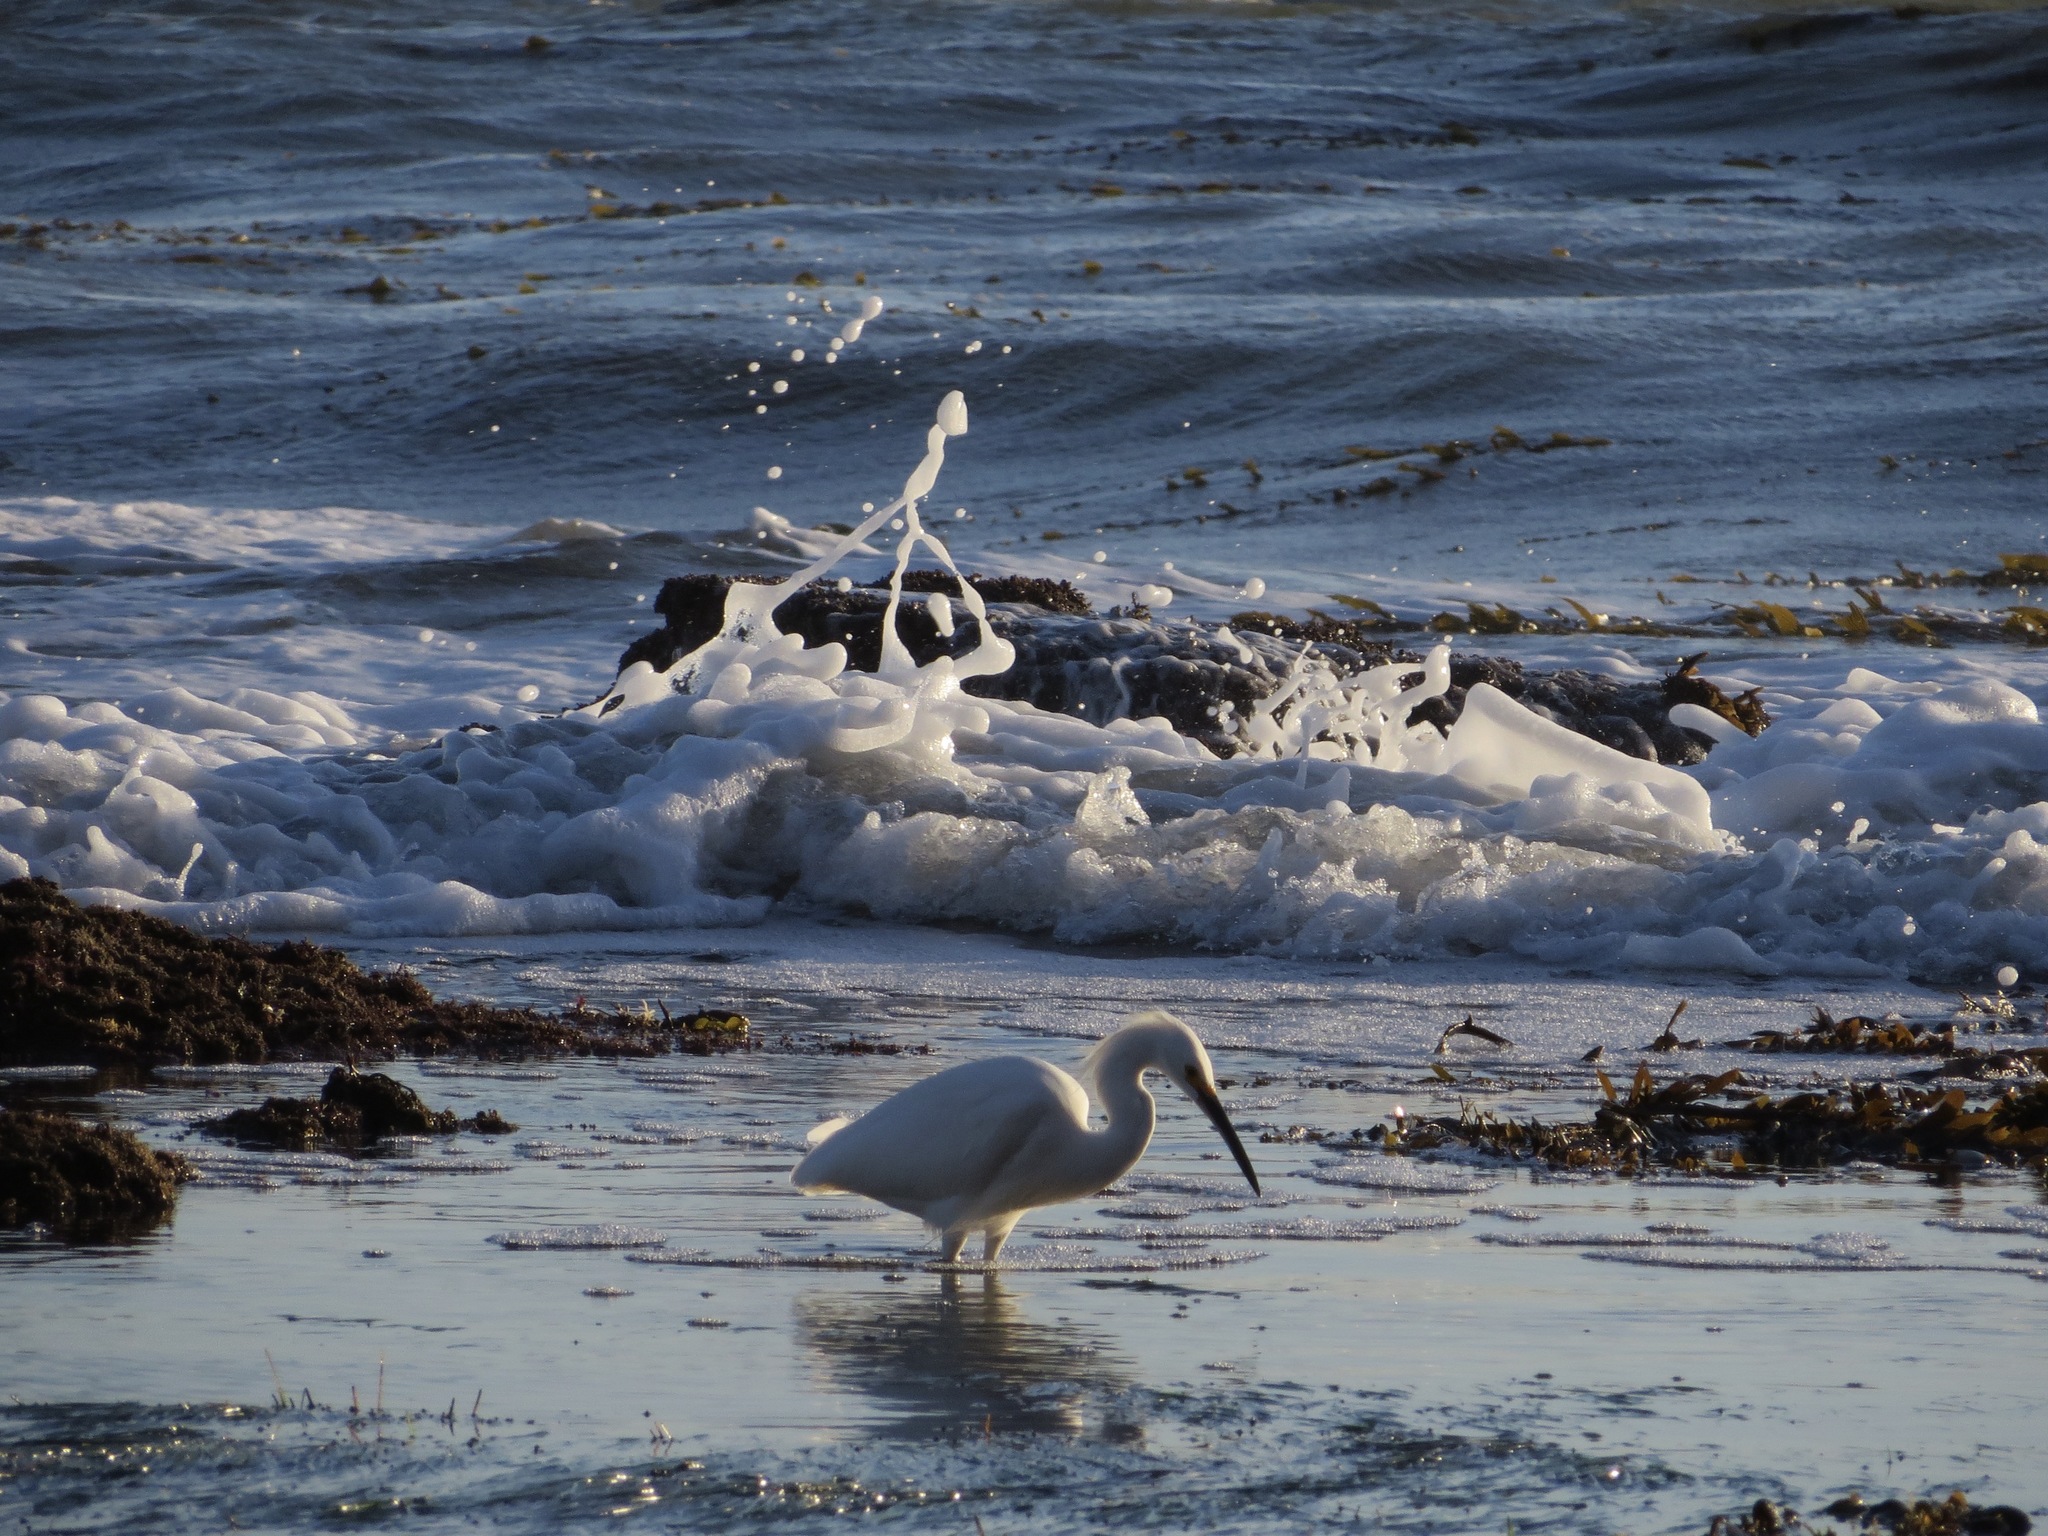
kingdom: Animalia
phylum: Chordata
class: Aves
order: Pelecaniformes
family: Ardeidae
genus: Egretta
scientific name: Egretta thula
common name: Snowy egret
